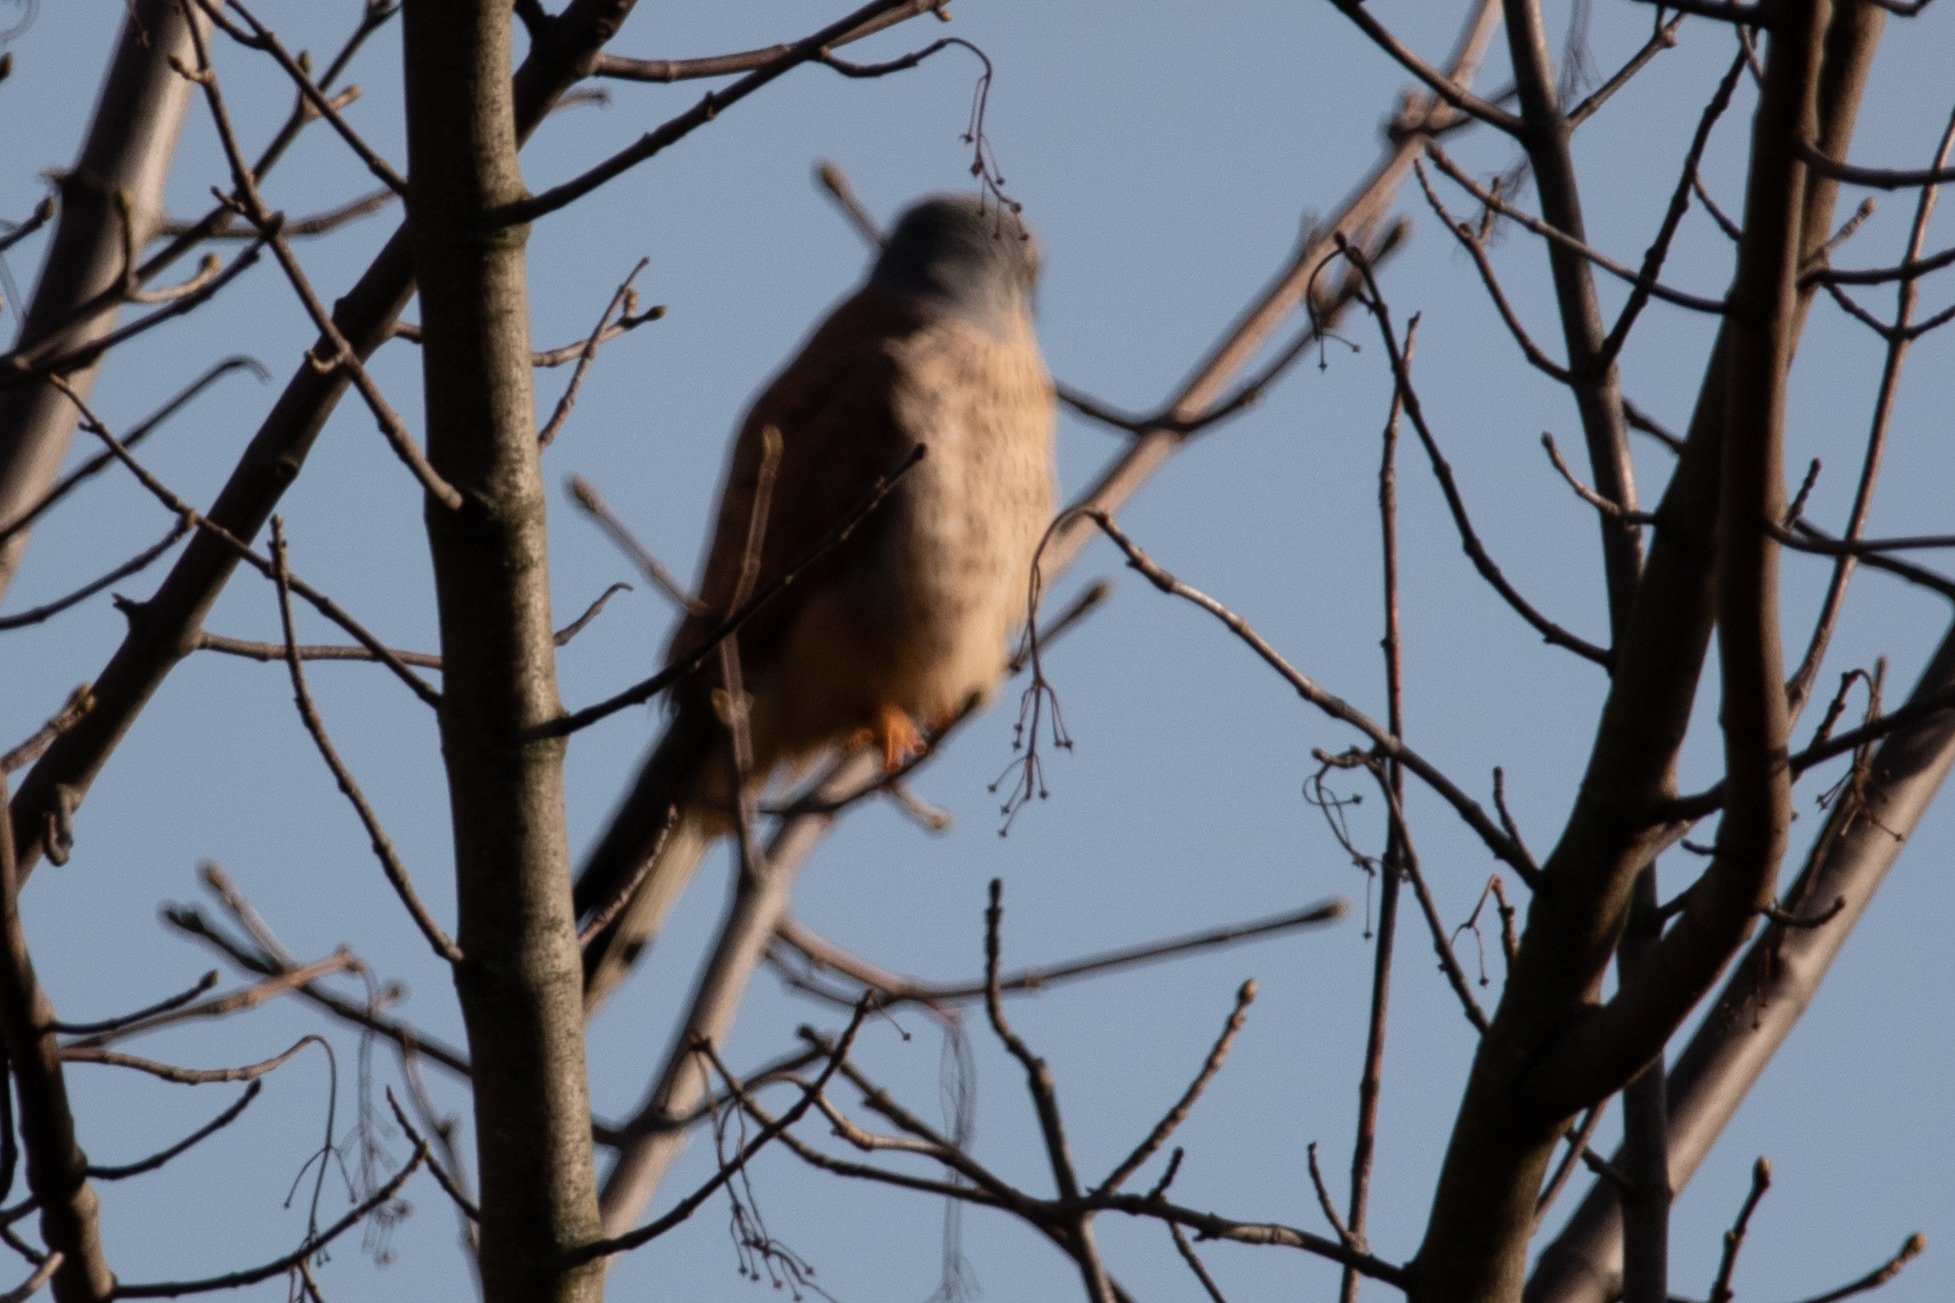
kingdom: Animalia
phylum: Chordata
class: Aves
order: Falconiformes
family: Falconidae
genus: Falco
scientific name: Falco tinnunculus
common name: Common kestrel
